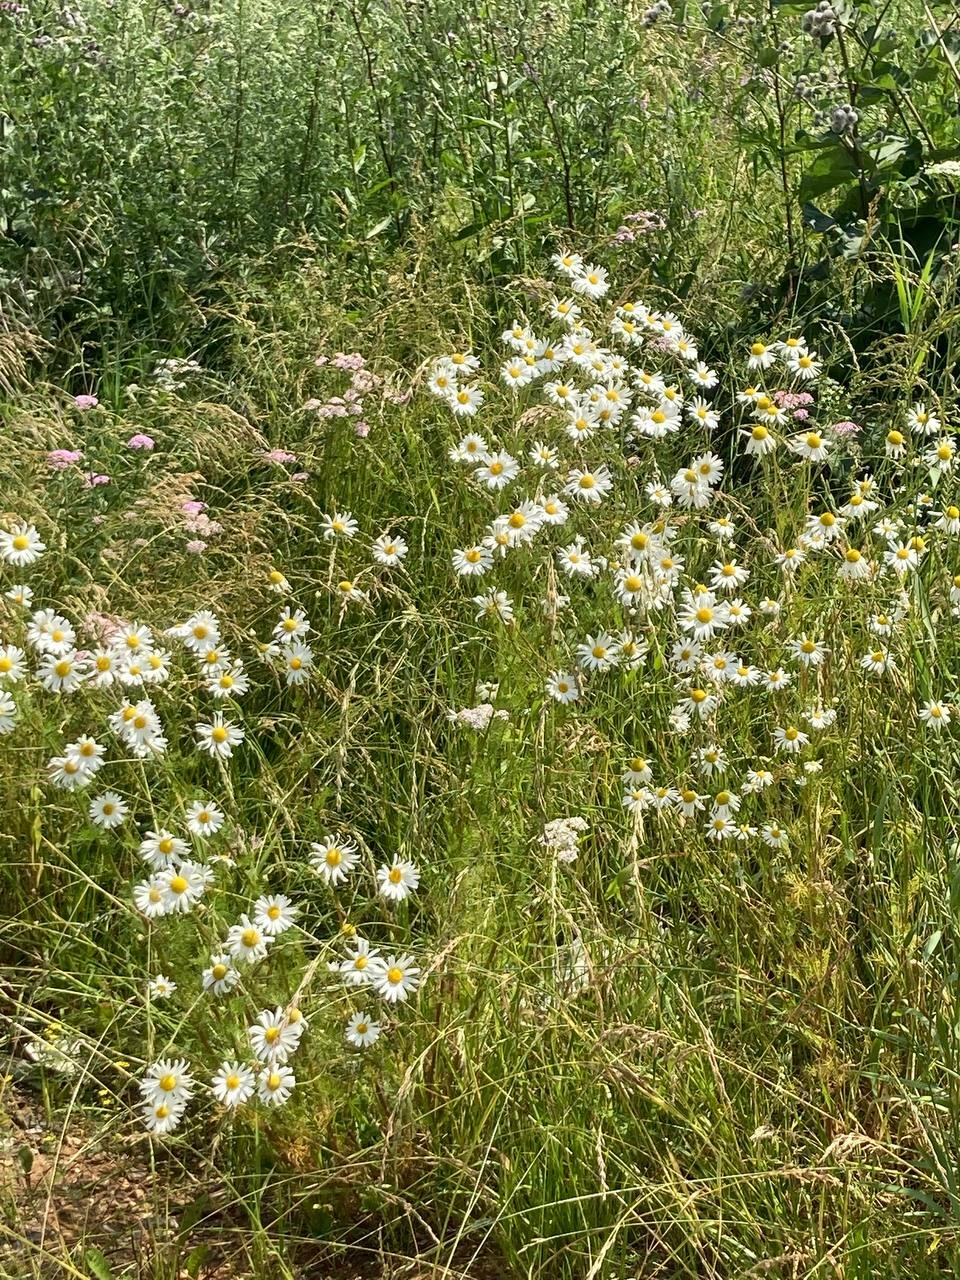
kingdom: Plantae
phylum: Tracheophyta
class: Magnoliopsida
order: Asterales
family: Asteraceae
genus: Tripleurospermum
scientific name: Tripleurospermum inodorum
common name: Scentless mayweed
